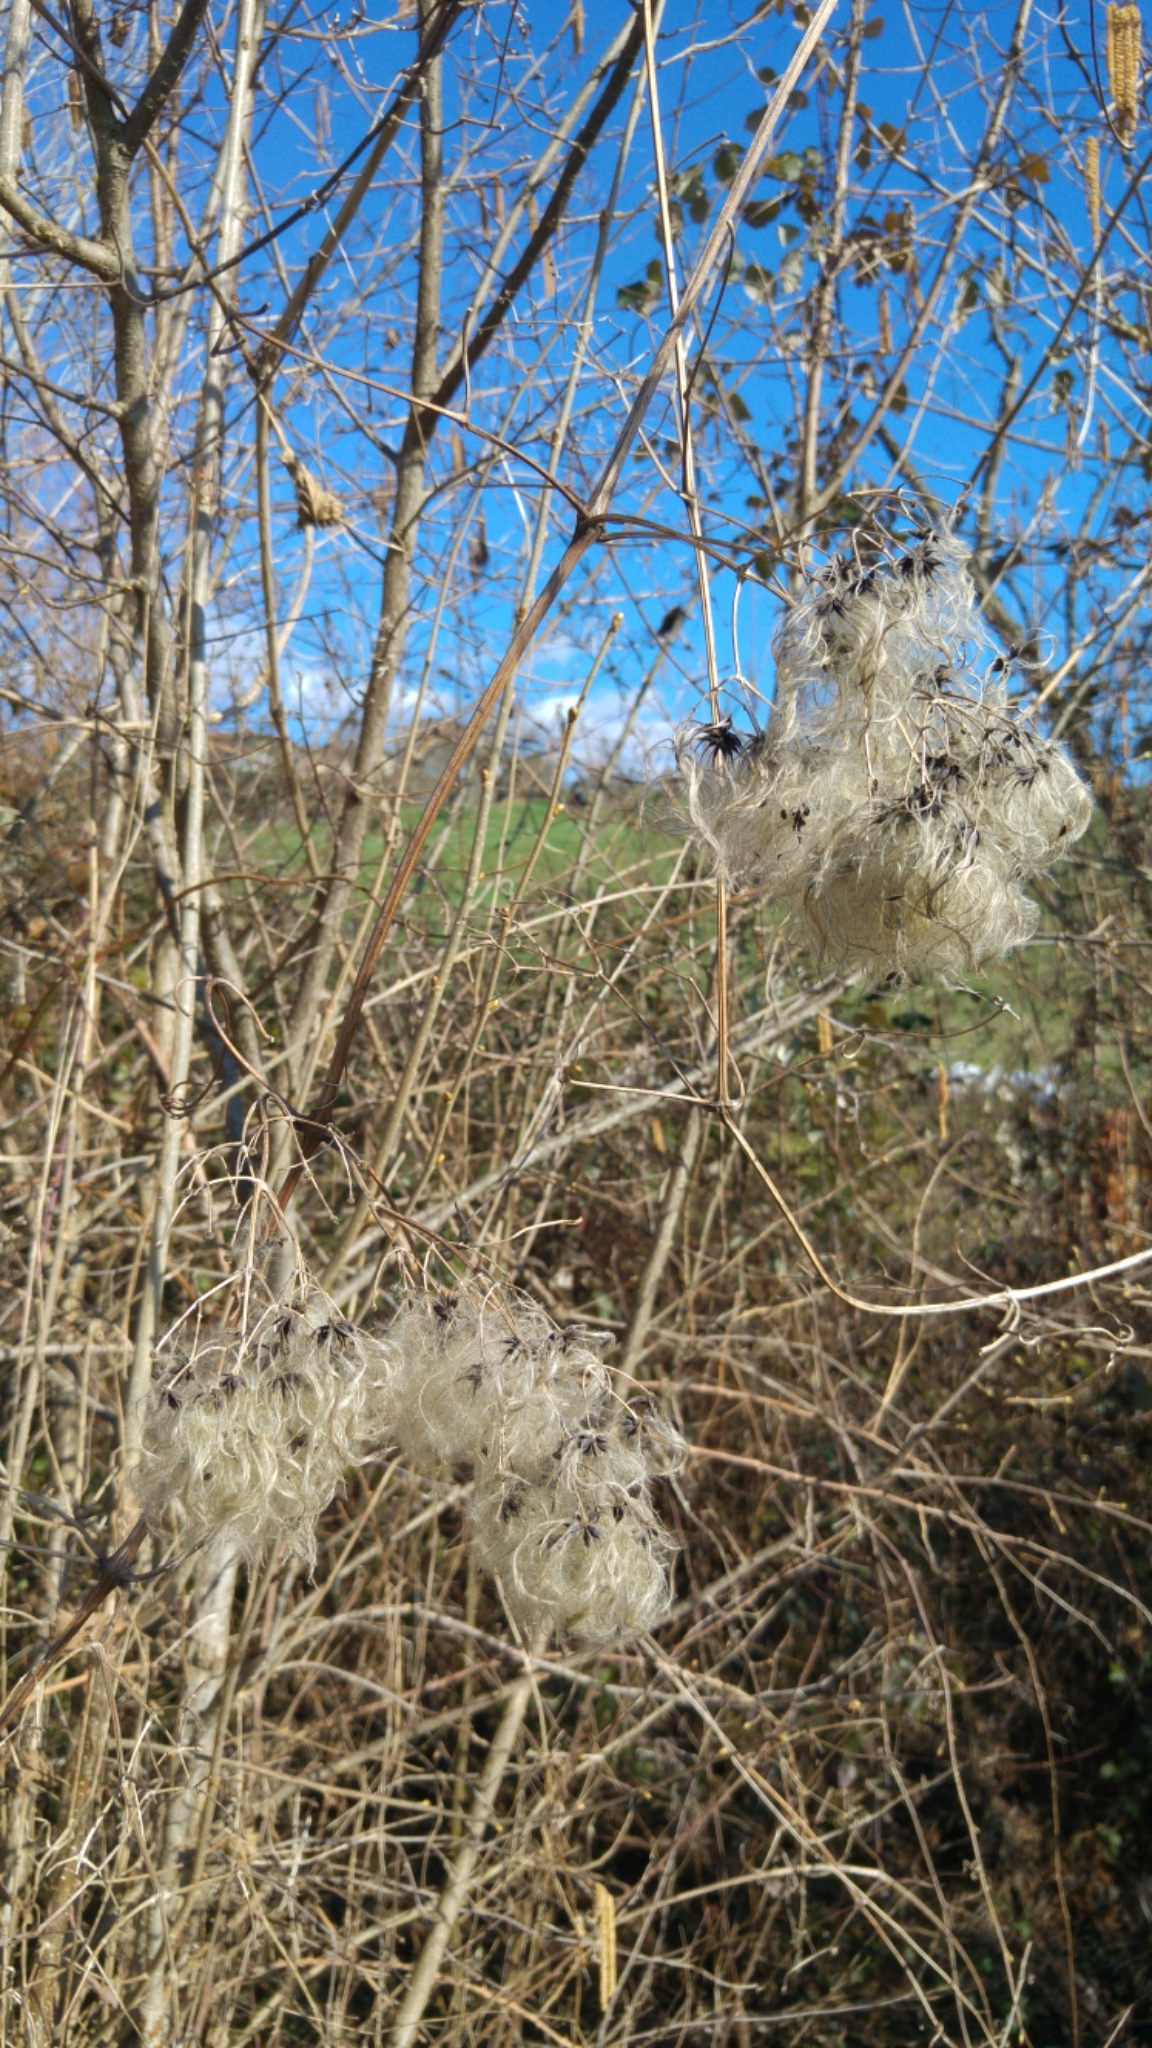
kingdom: Plantae
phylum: Tracheophyta
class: Magnoliopsida
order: Ranunculales
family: Ranunculaceae
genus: Clematis
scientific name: Clematis vitalba
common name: Evergreen clematis
